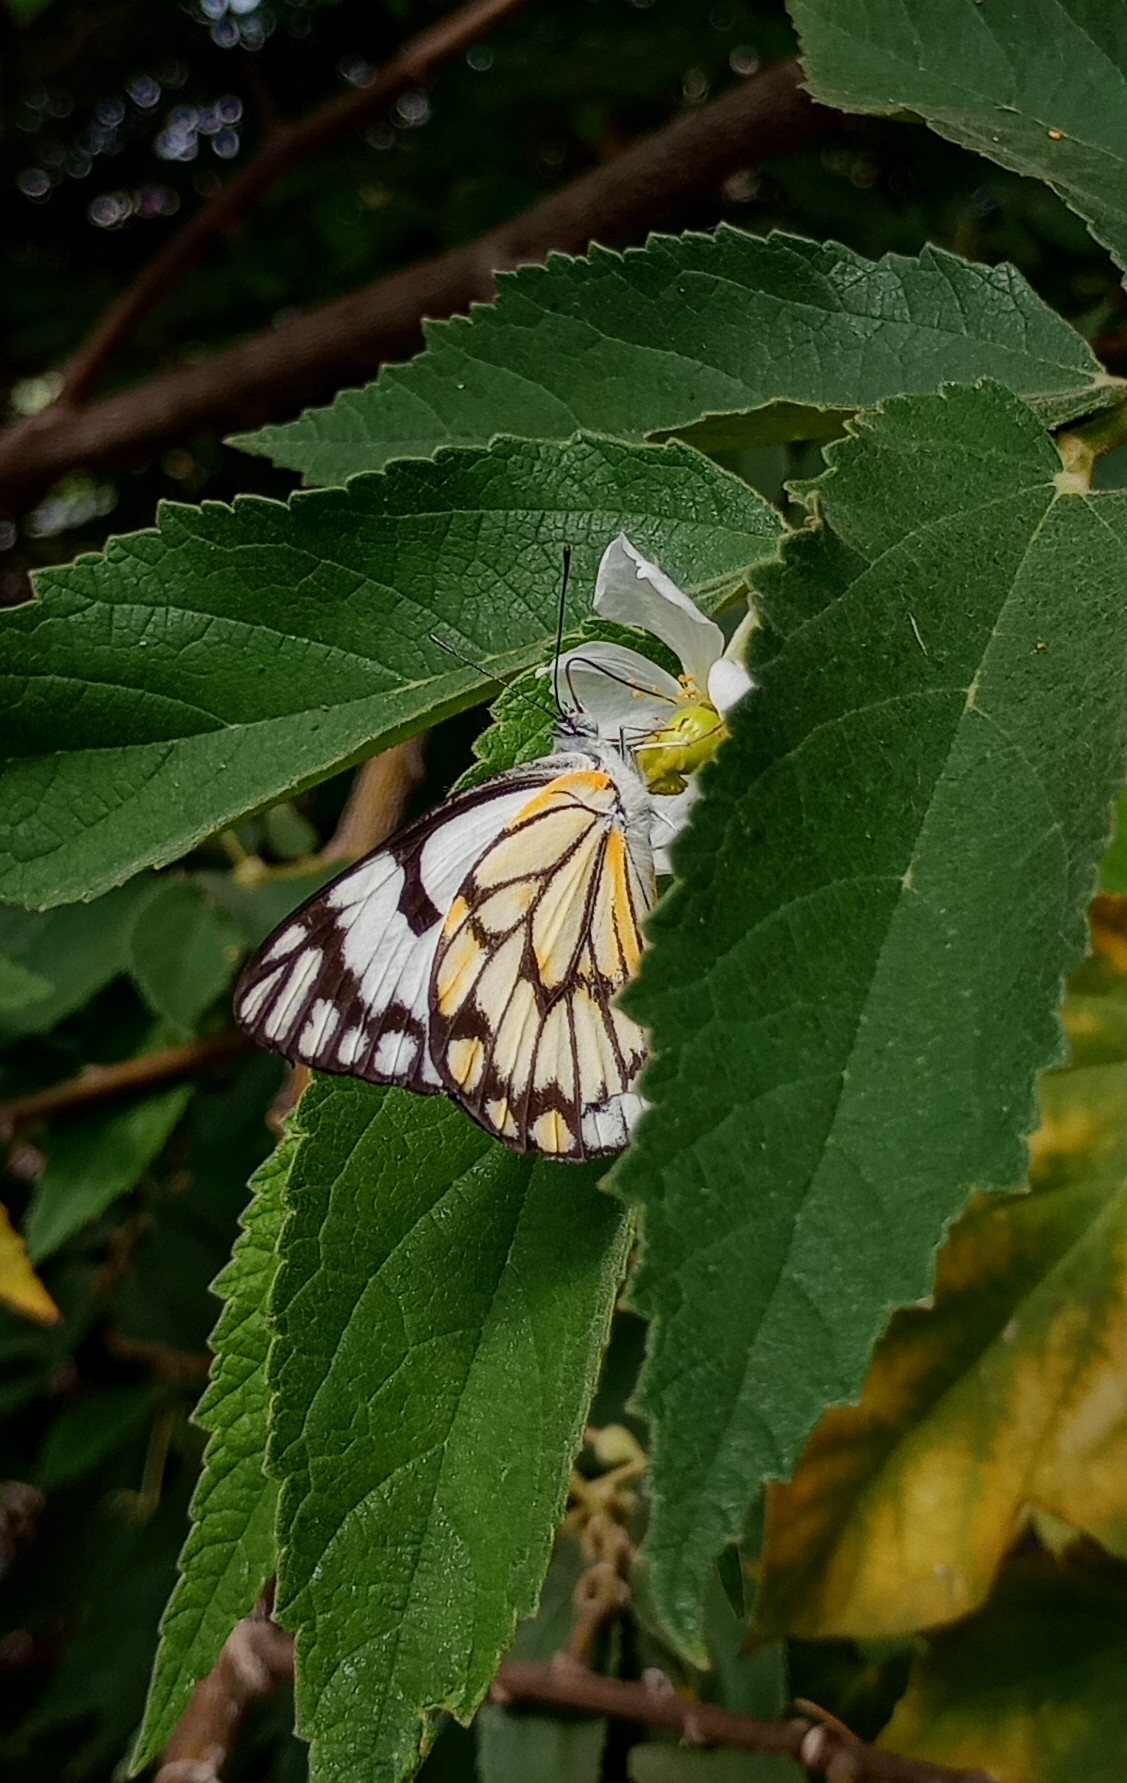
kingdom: Animalia
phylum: Arthropoda
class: Insecta
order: Lepidoptera
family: Pieridae
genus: Belenois
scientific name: Belenois aurota
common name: Brown-veined white
